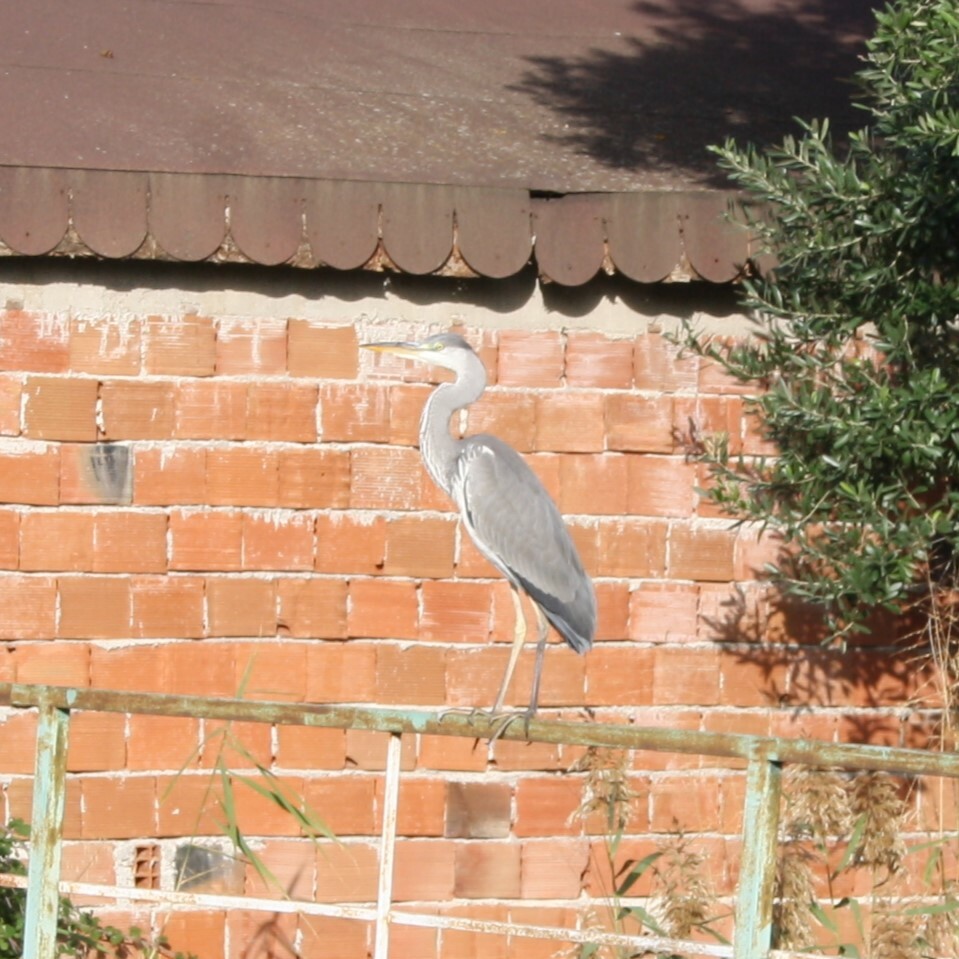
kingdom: Animalia
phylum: Chordata
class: Aves
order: Pelecaniformes
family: Ardeidae
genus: Ardea
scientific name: Ardea cinerea
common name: Grey heron
